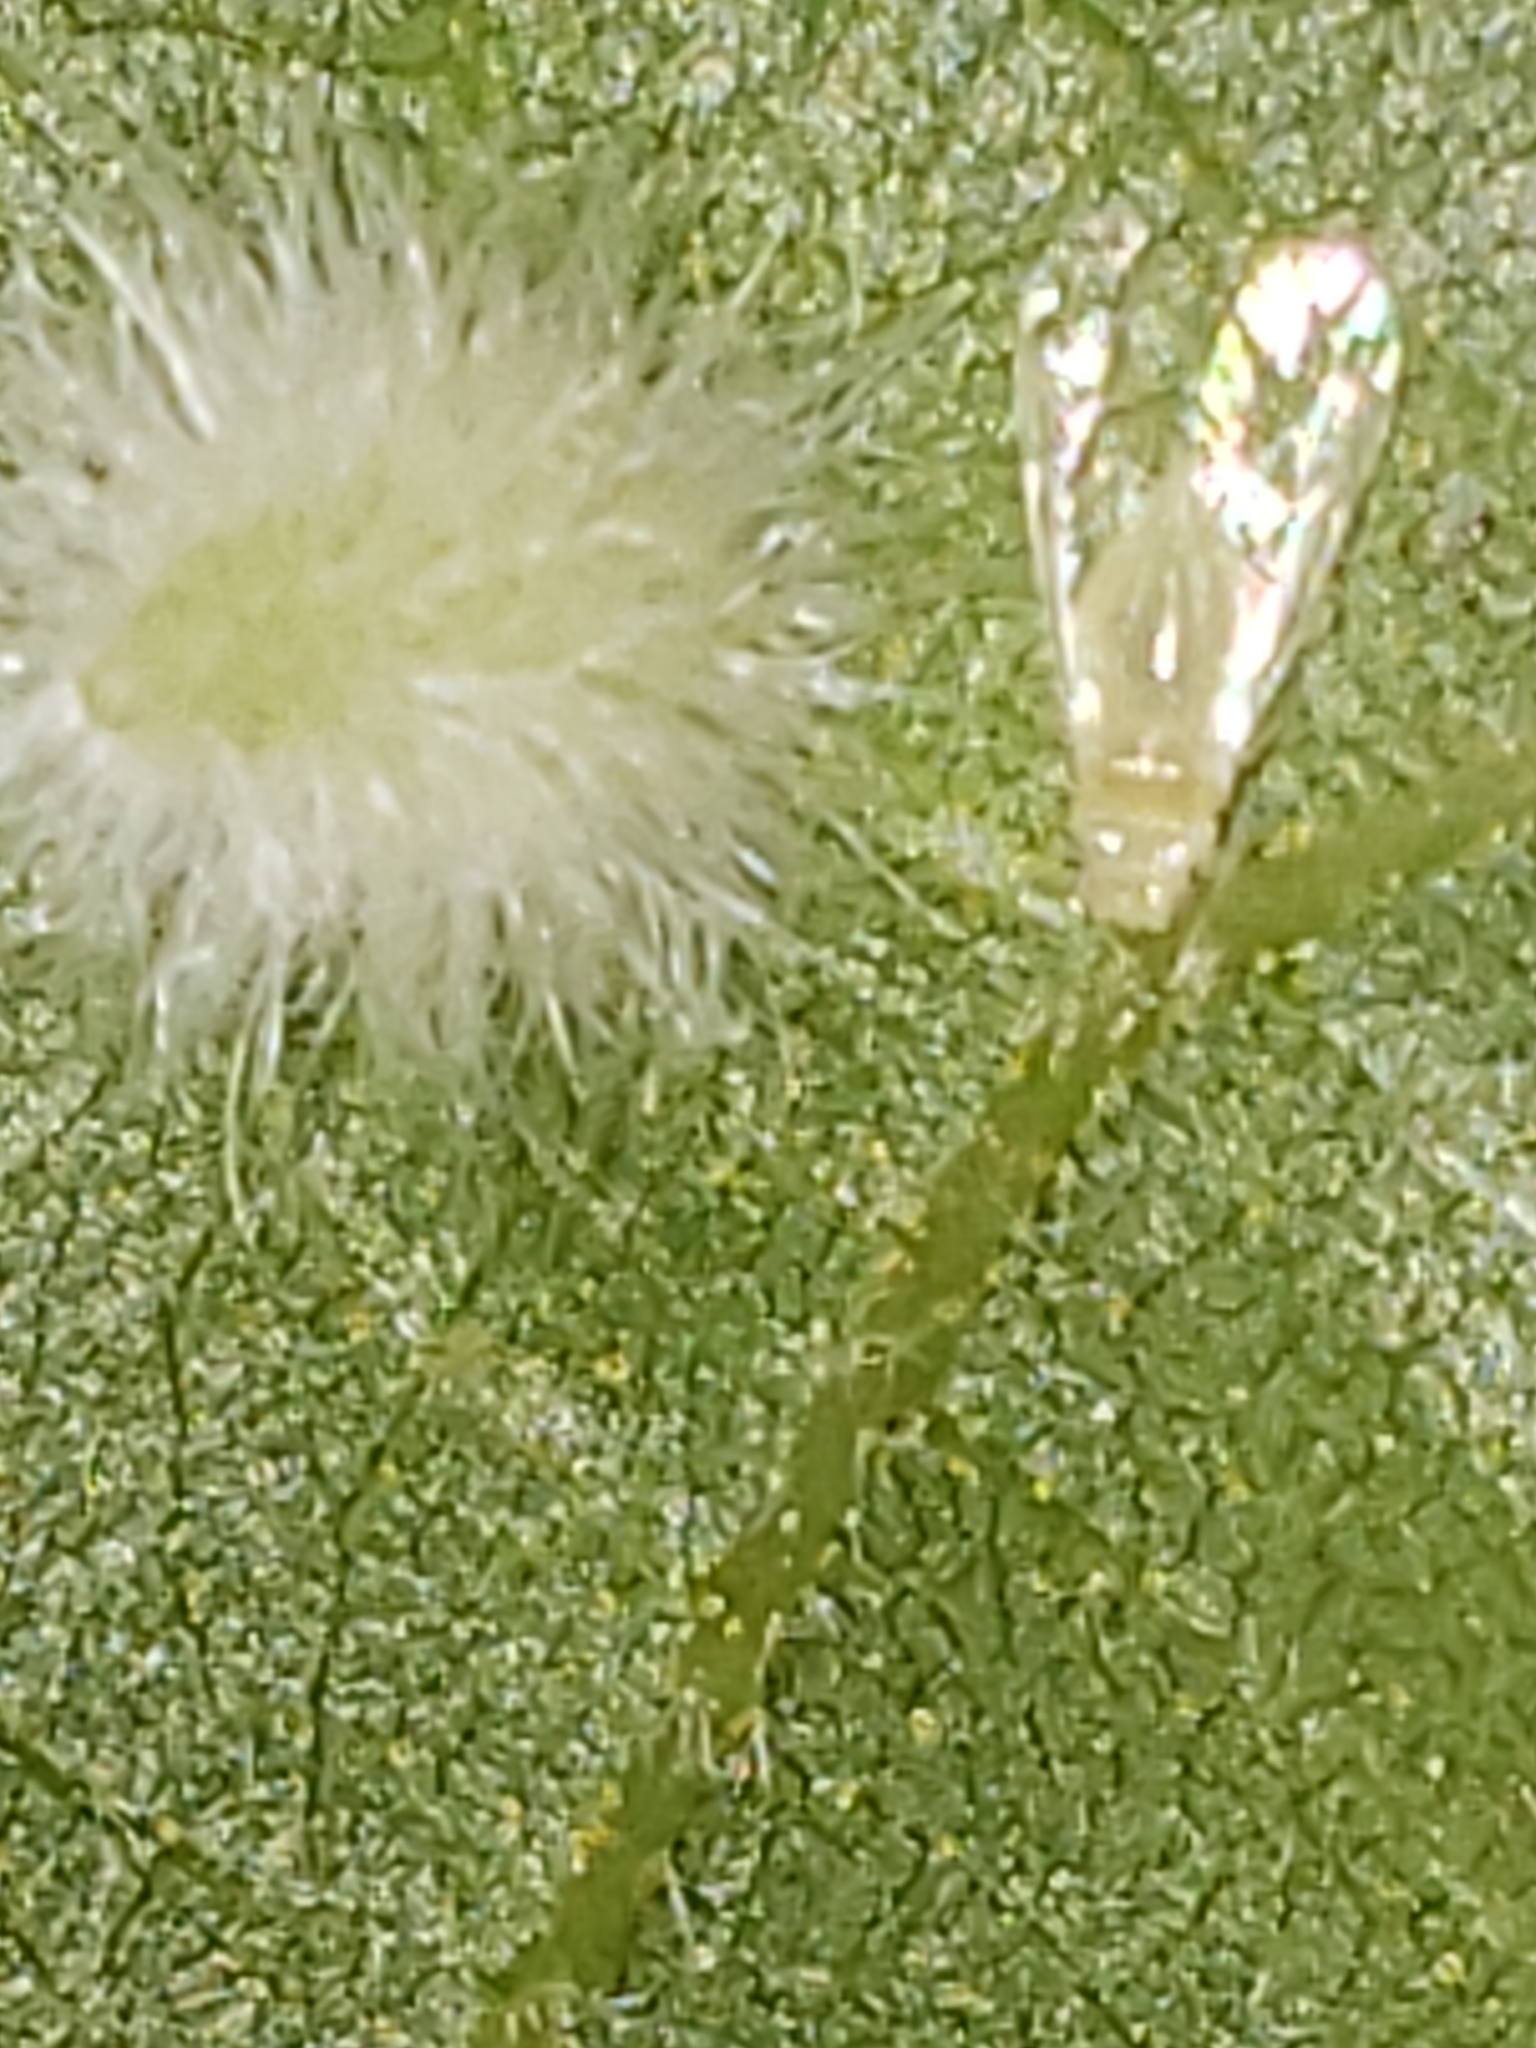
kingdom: Animalia
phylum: Arthropoda
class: Insecta
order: Diptera
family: Cecidomyiidae
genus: Caryomyia
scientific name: Caryomyia albipilosa
